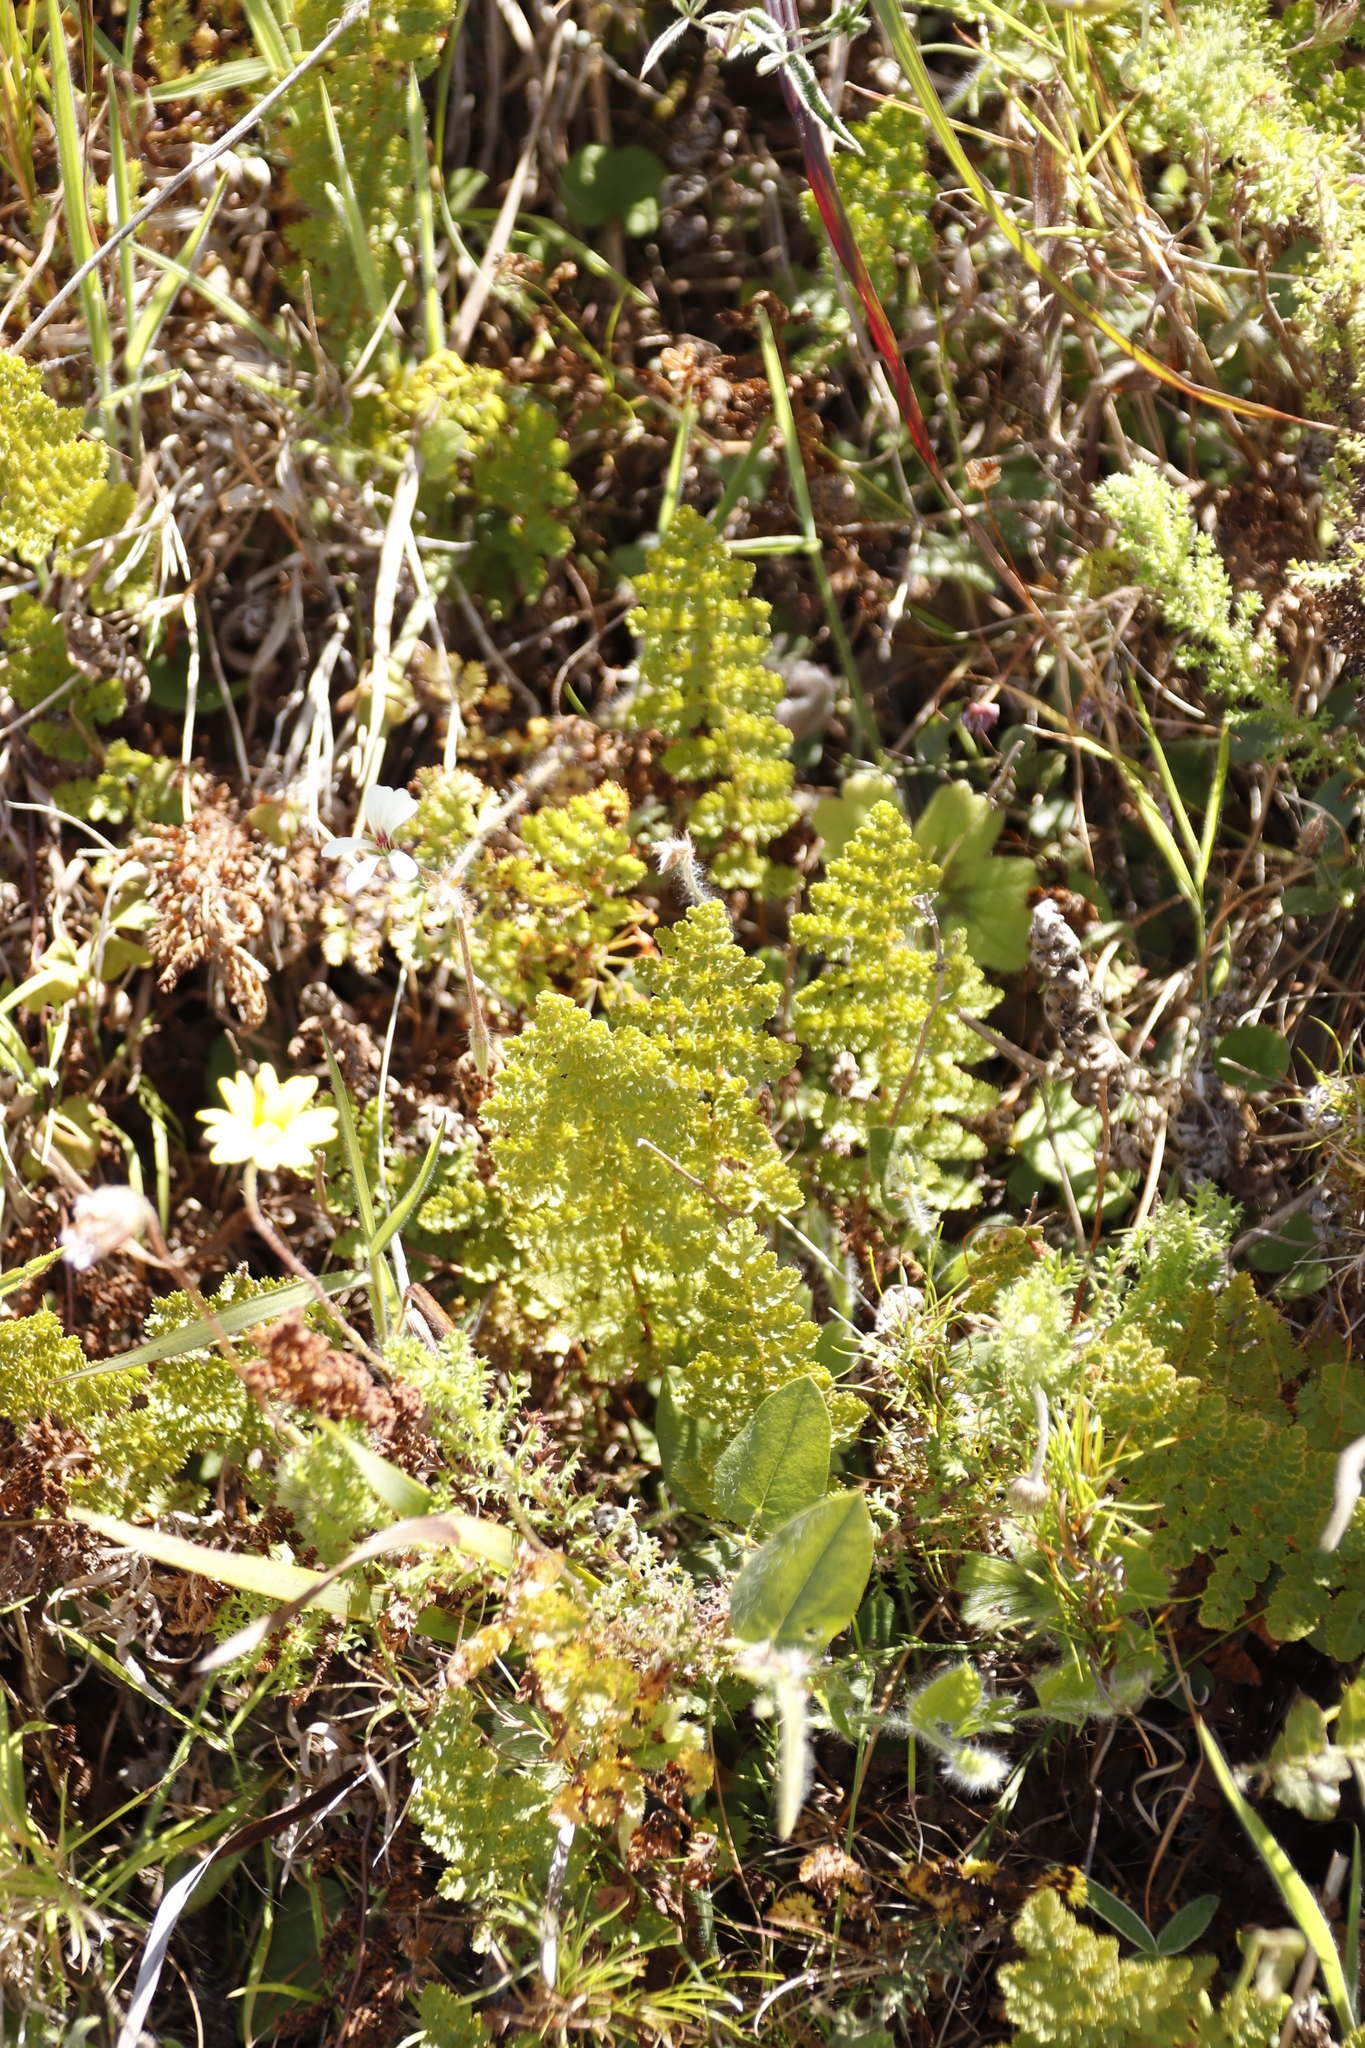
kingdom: Plantae
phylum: Tracheophyta
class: Polypodiopsida
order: Schizaeales
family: Anemiaceae
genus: Anemia
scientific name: Anemia caffrorum
